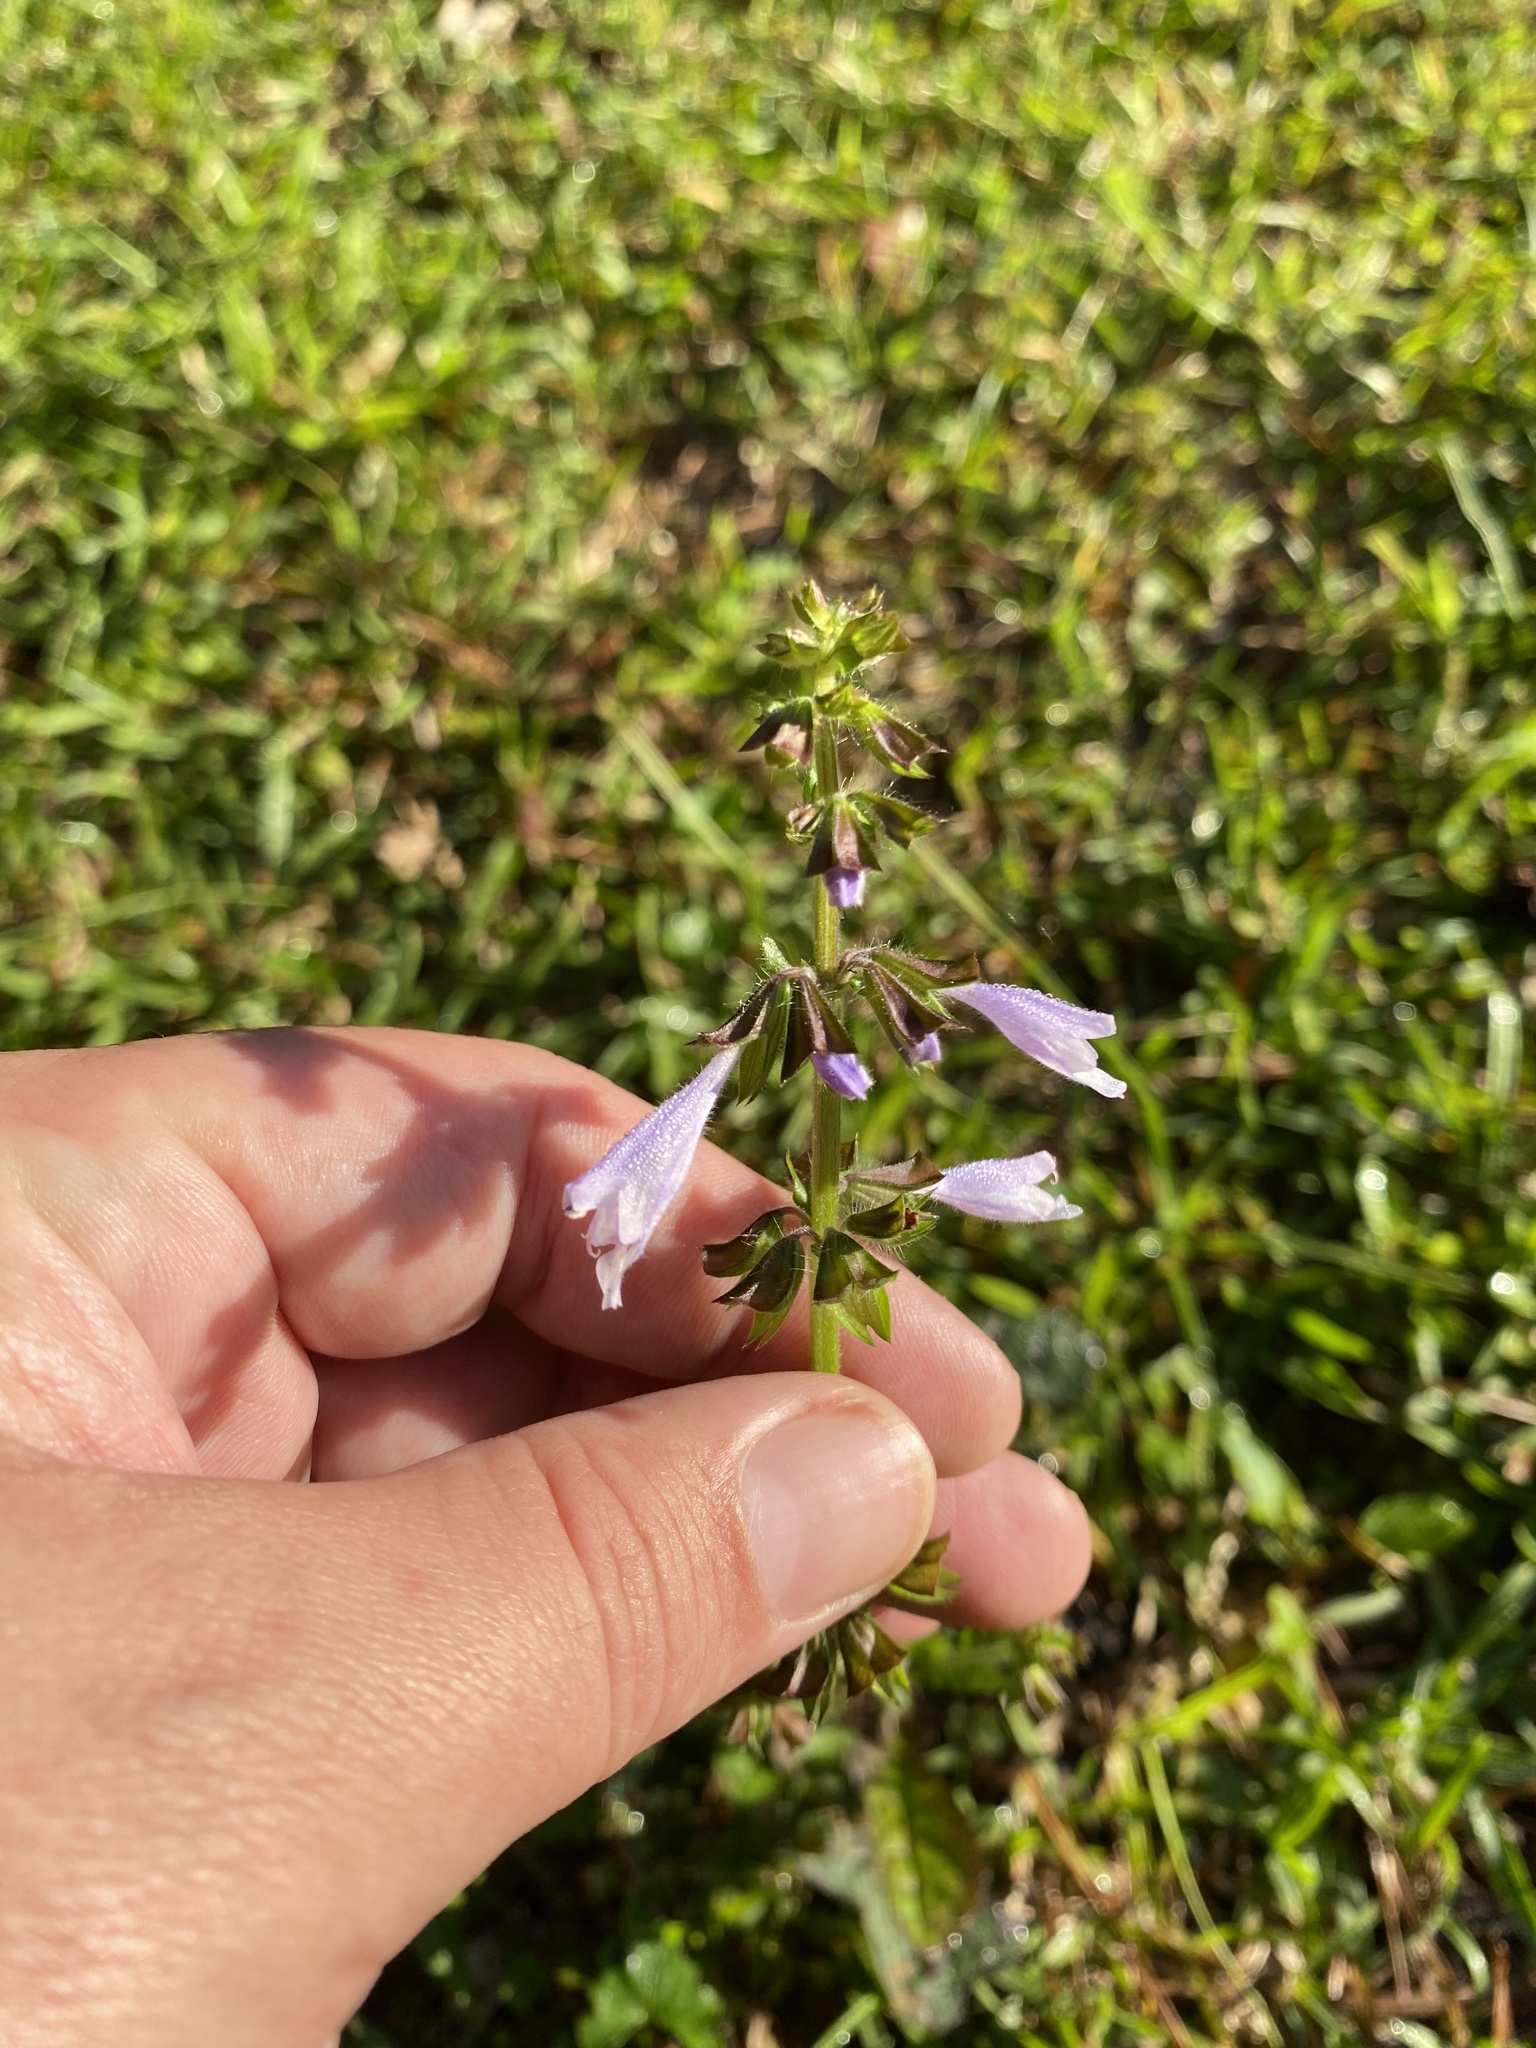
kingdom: Plantae
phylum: Tracheophyta
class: Magnoliopsida
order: Lamiales
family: Lamiaceae
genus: Salvia
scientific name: Salvia lyrata
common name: Cancerweed
